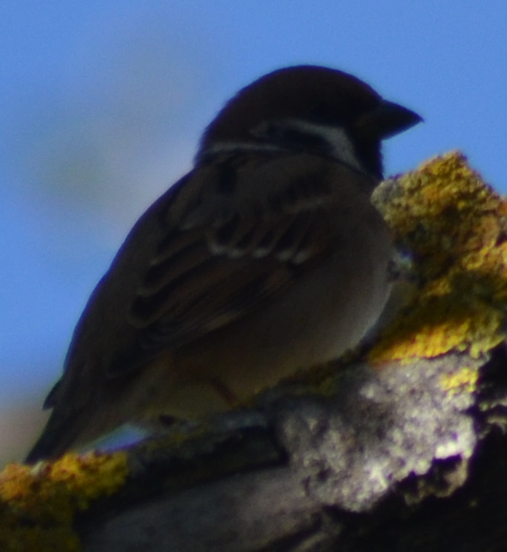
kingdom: Animalia
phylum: Chordata
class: Aves
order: Passeriformes
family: Passeridae
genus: Passer
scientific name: Passer montanus
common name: Eurasian tree sparrow
